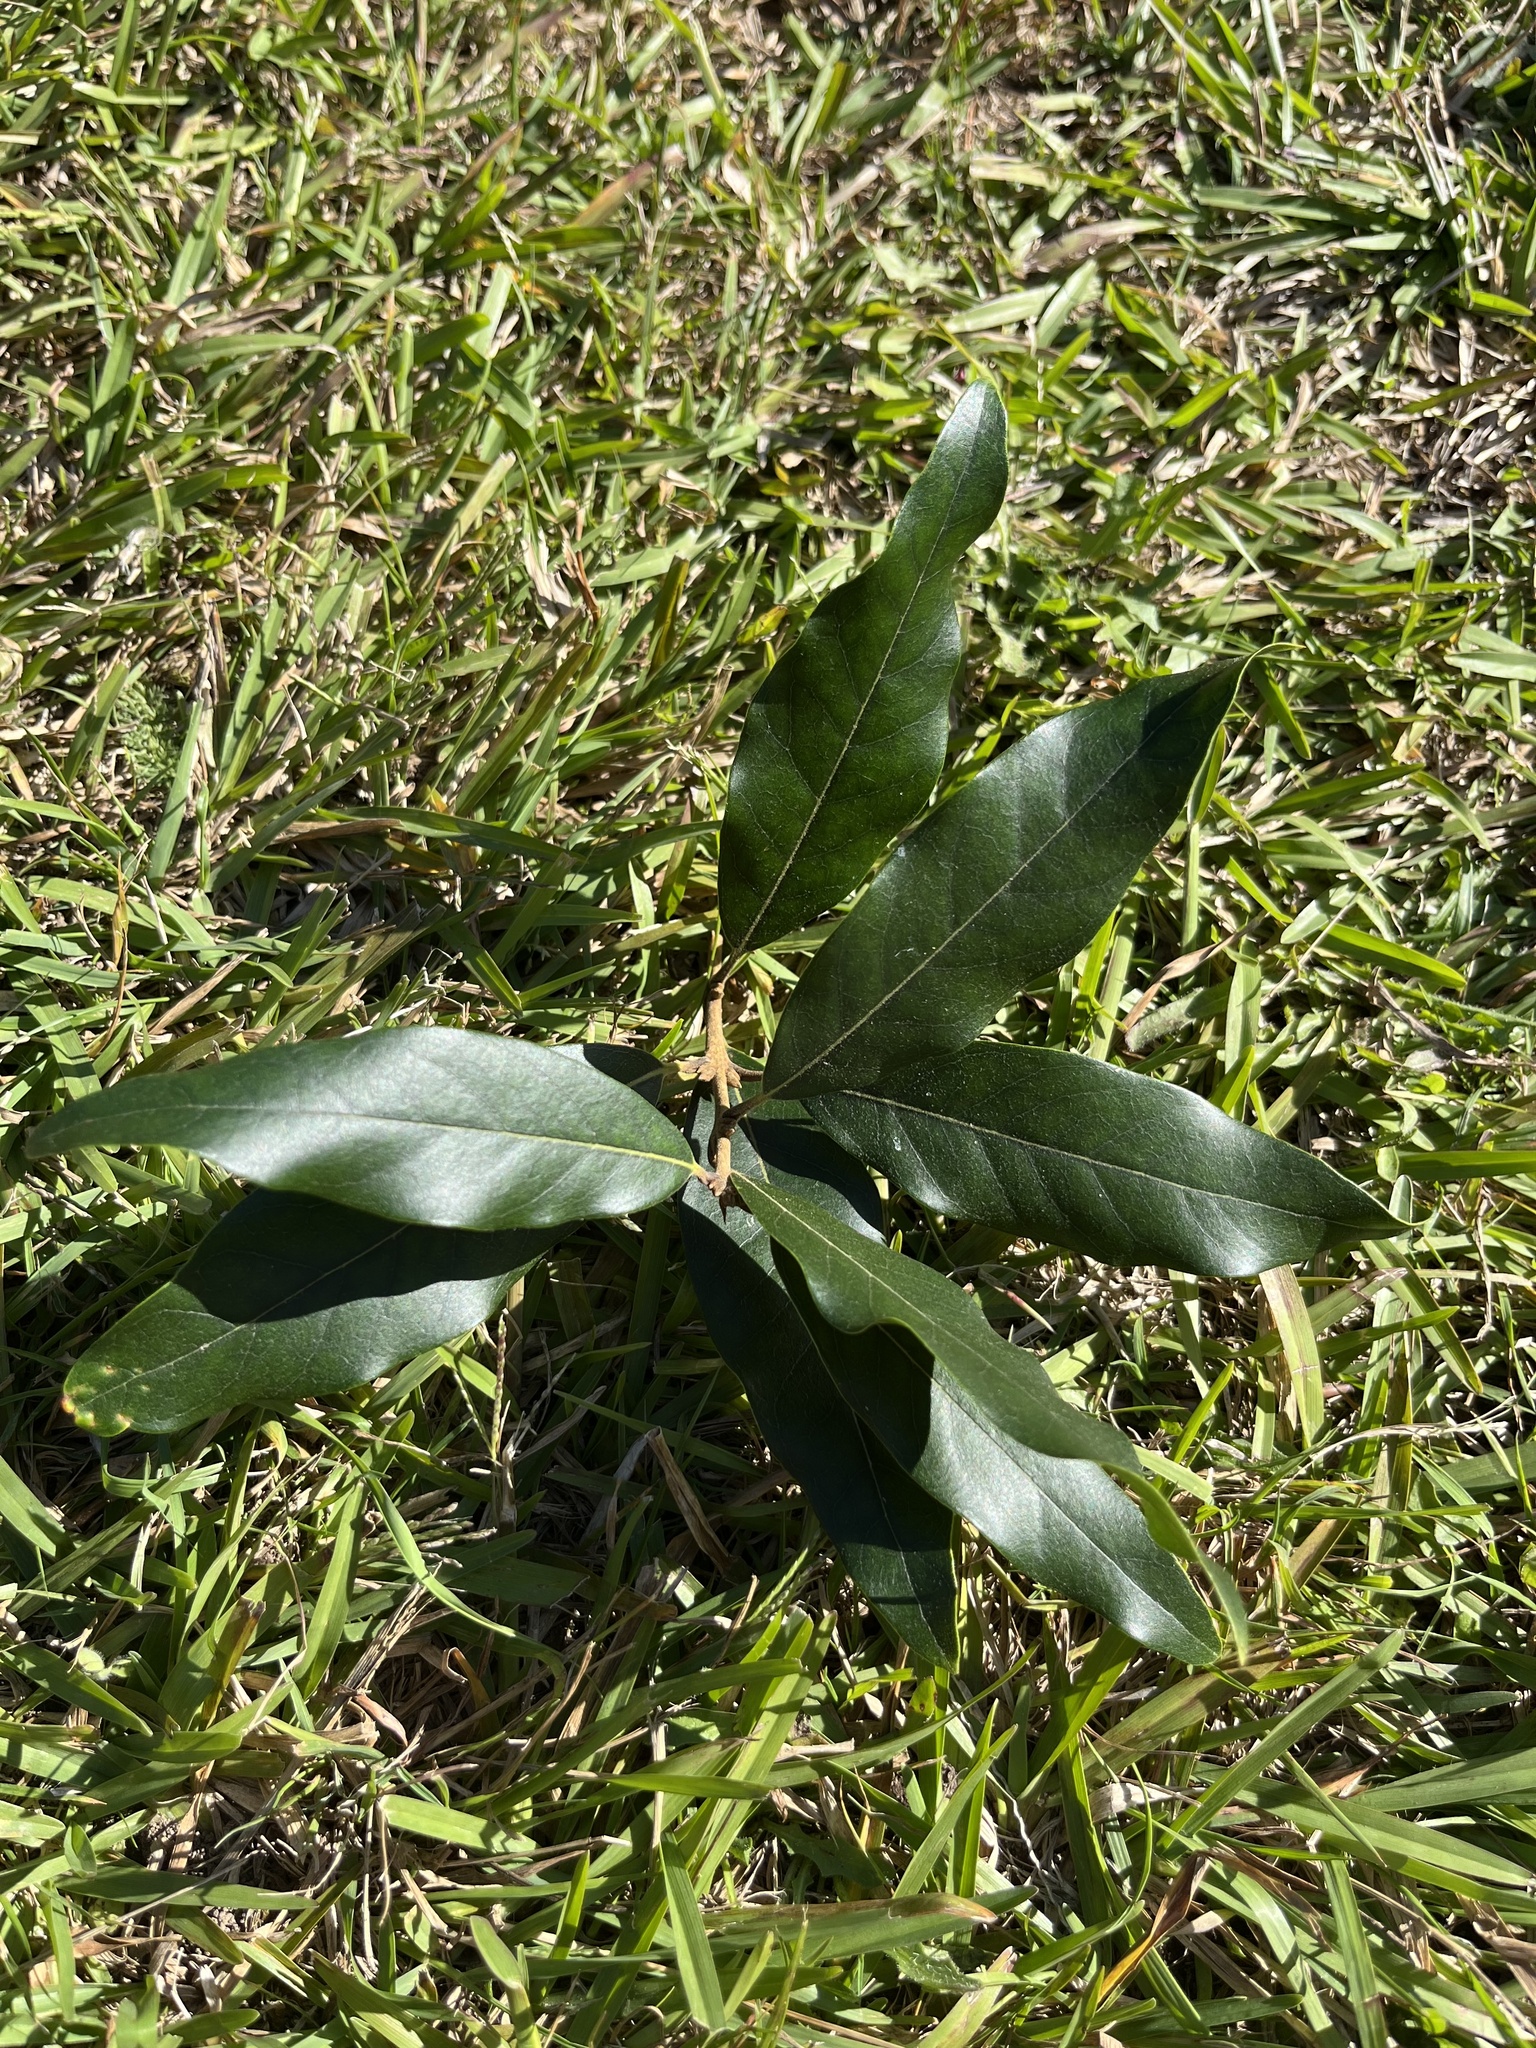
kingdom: Plantae
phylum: Tracheophyta
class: Magnoliopsida
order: Lamiales
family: Oleaceae
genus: Nestegis
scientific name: Nestegis cunninghamii
